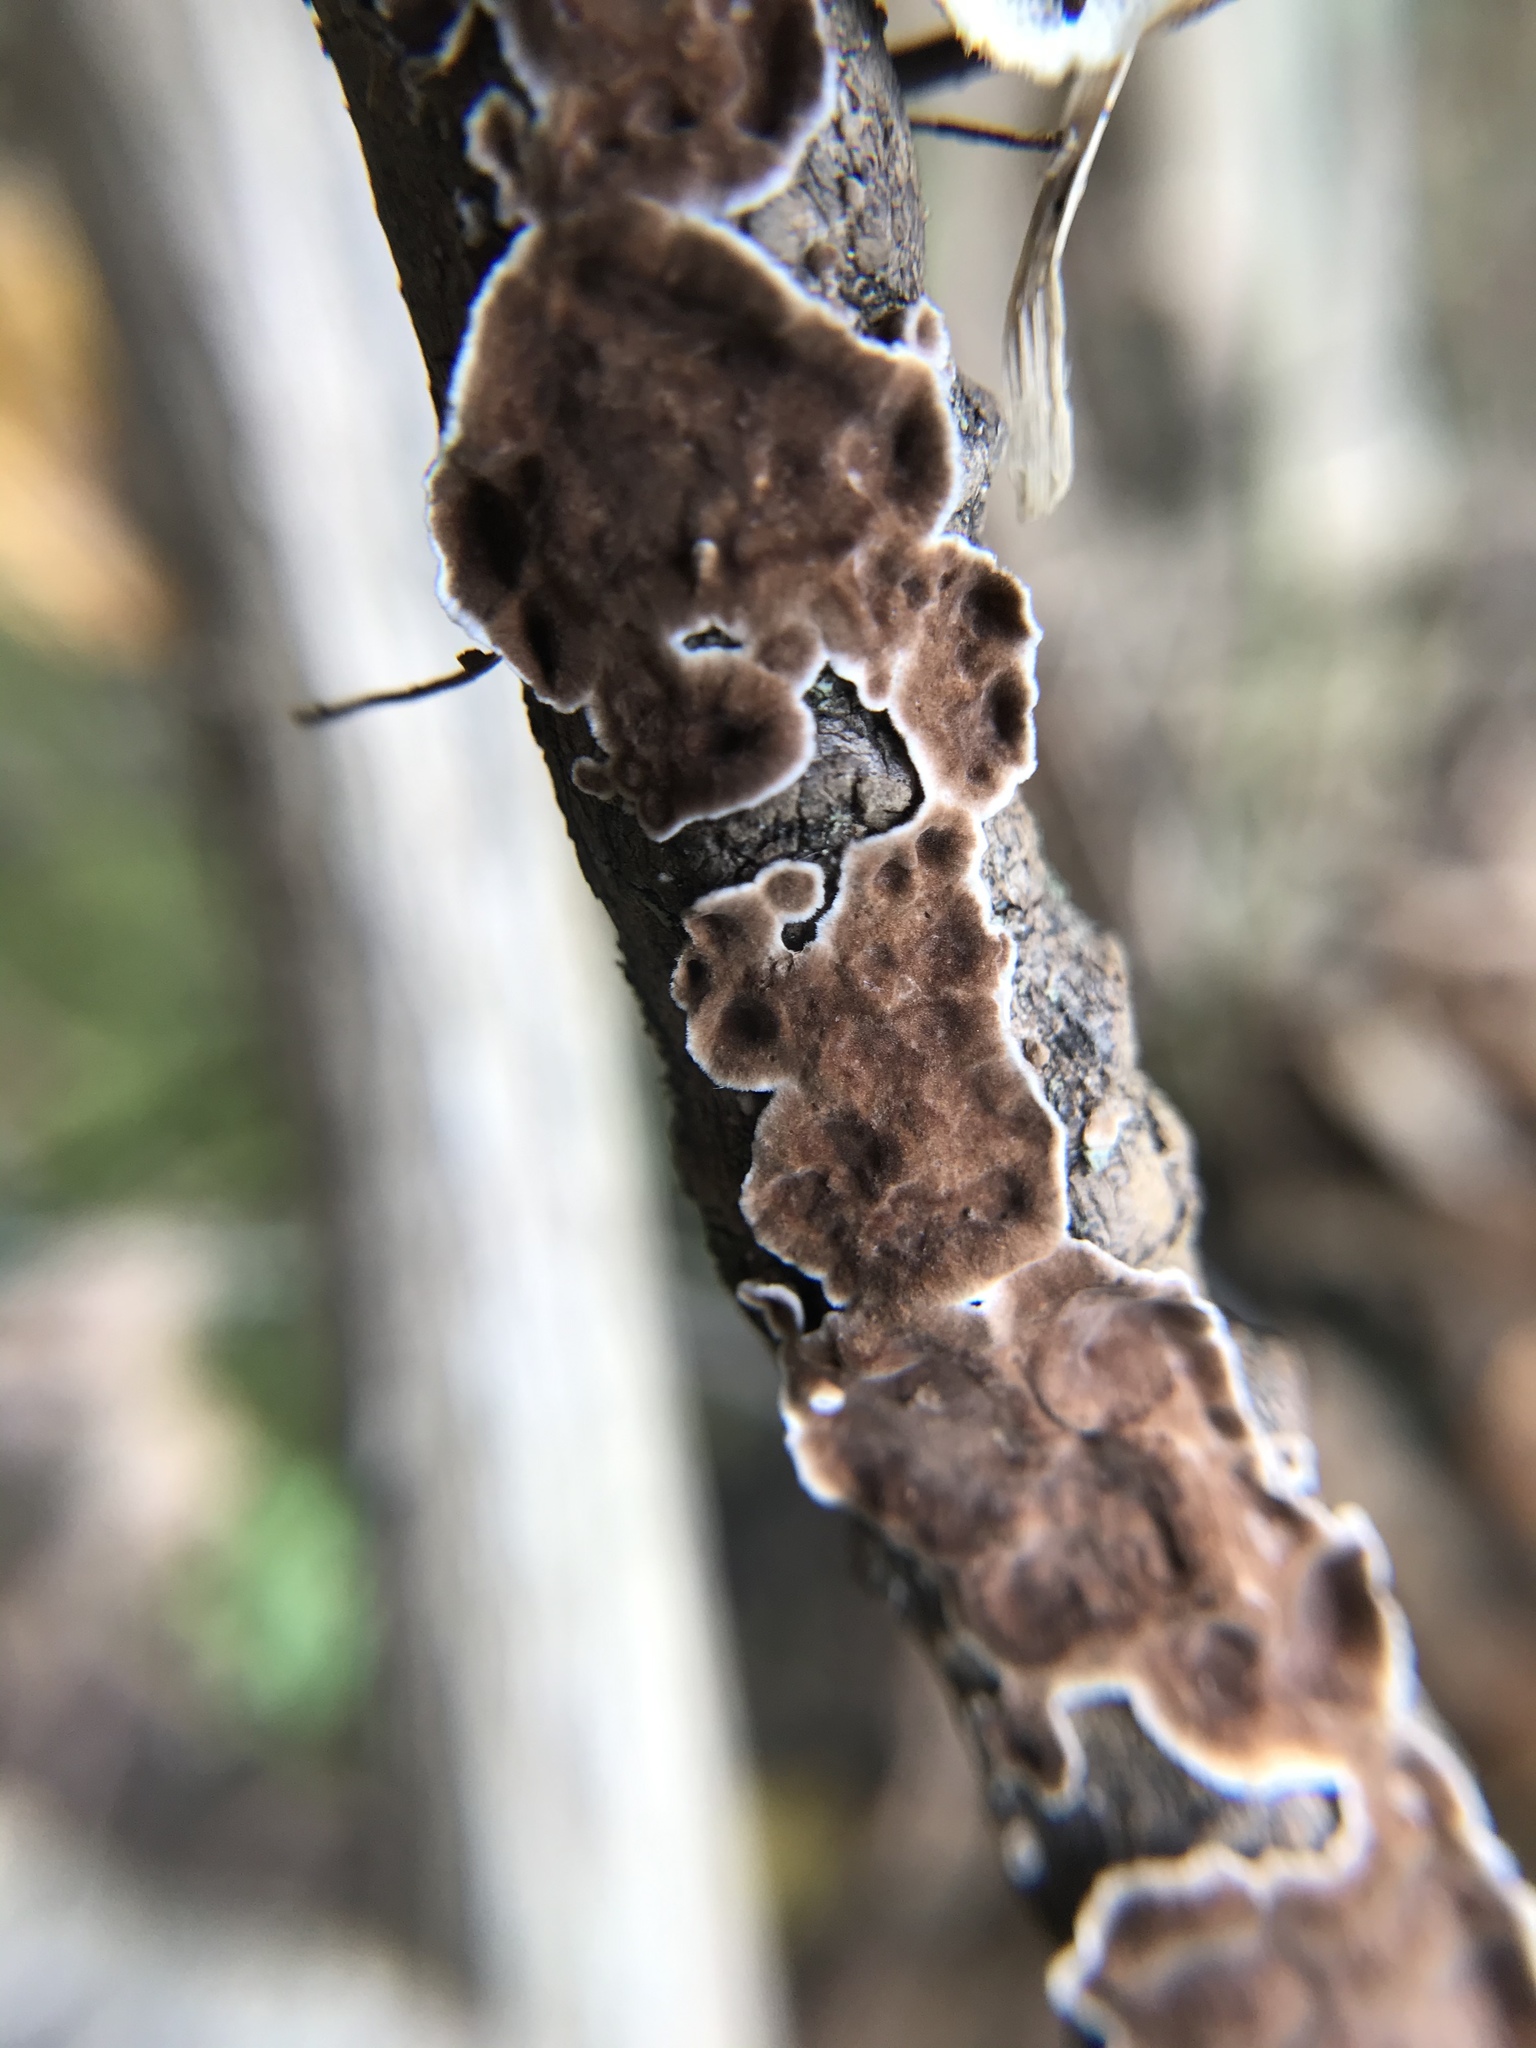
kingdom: Fungi
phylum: Basidiomycota
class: Agaricomycetes
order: Russulales
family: Peniophoraceae
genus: Peniophora
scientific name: Peniophora albobadia
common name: Giraffe spots
